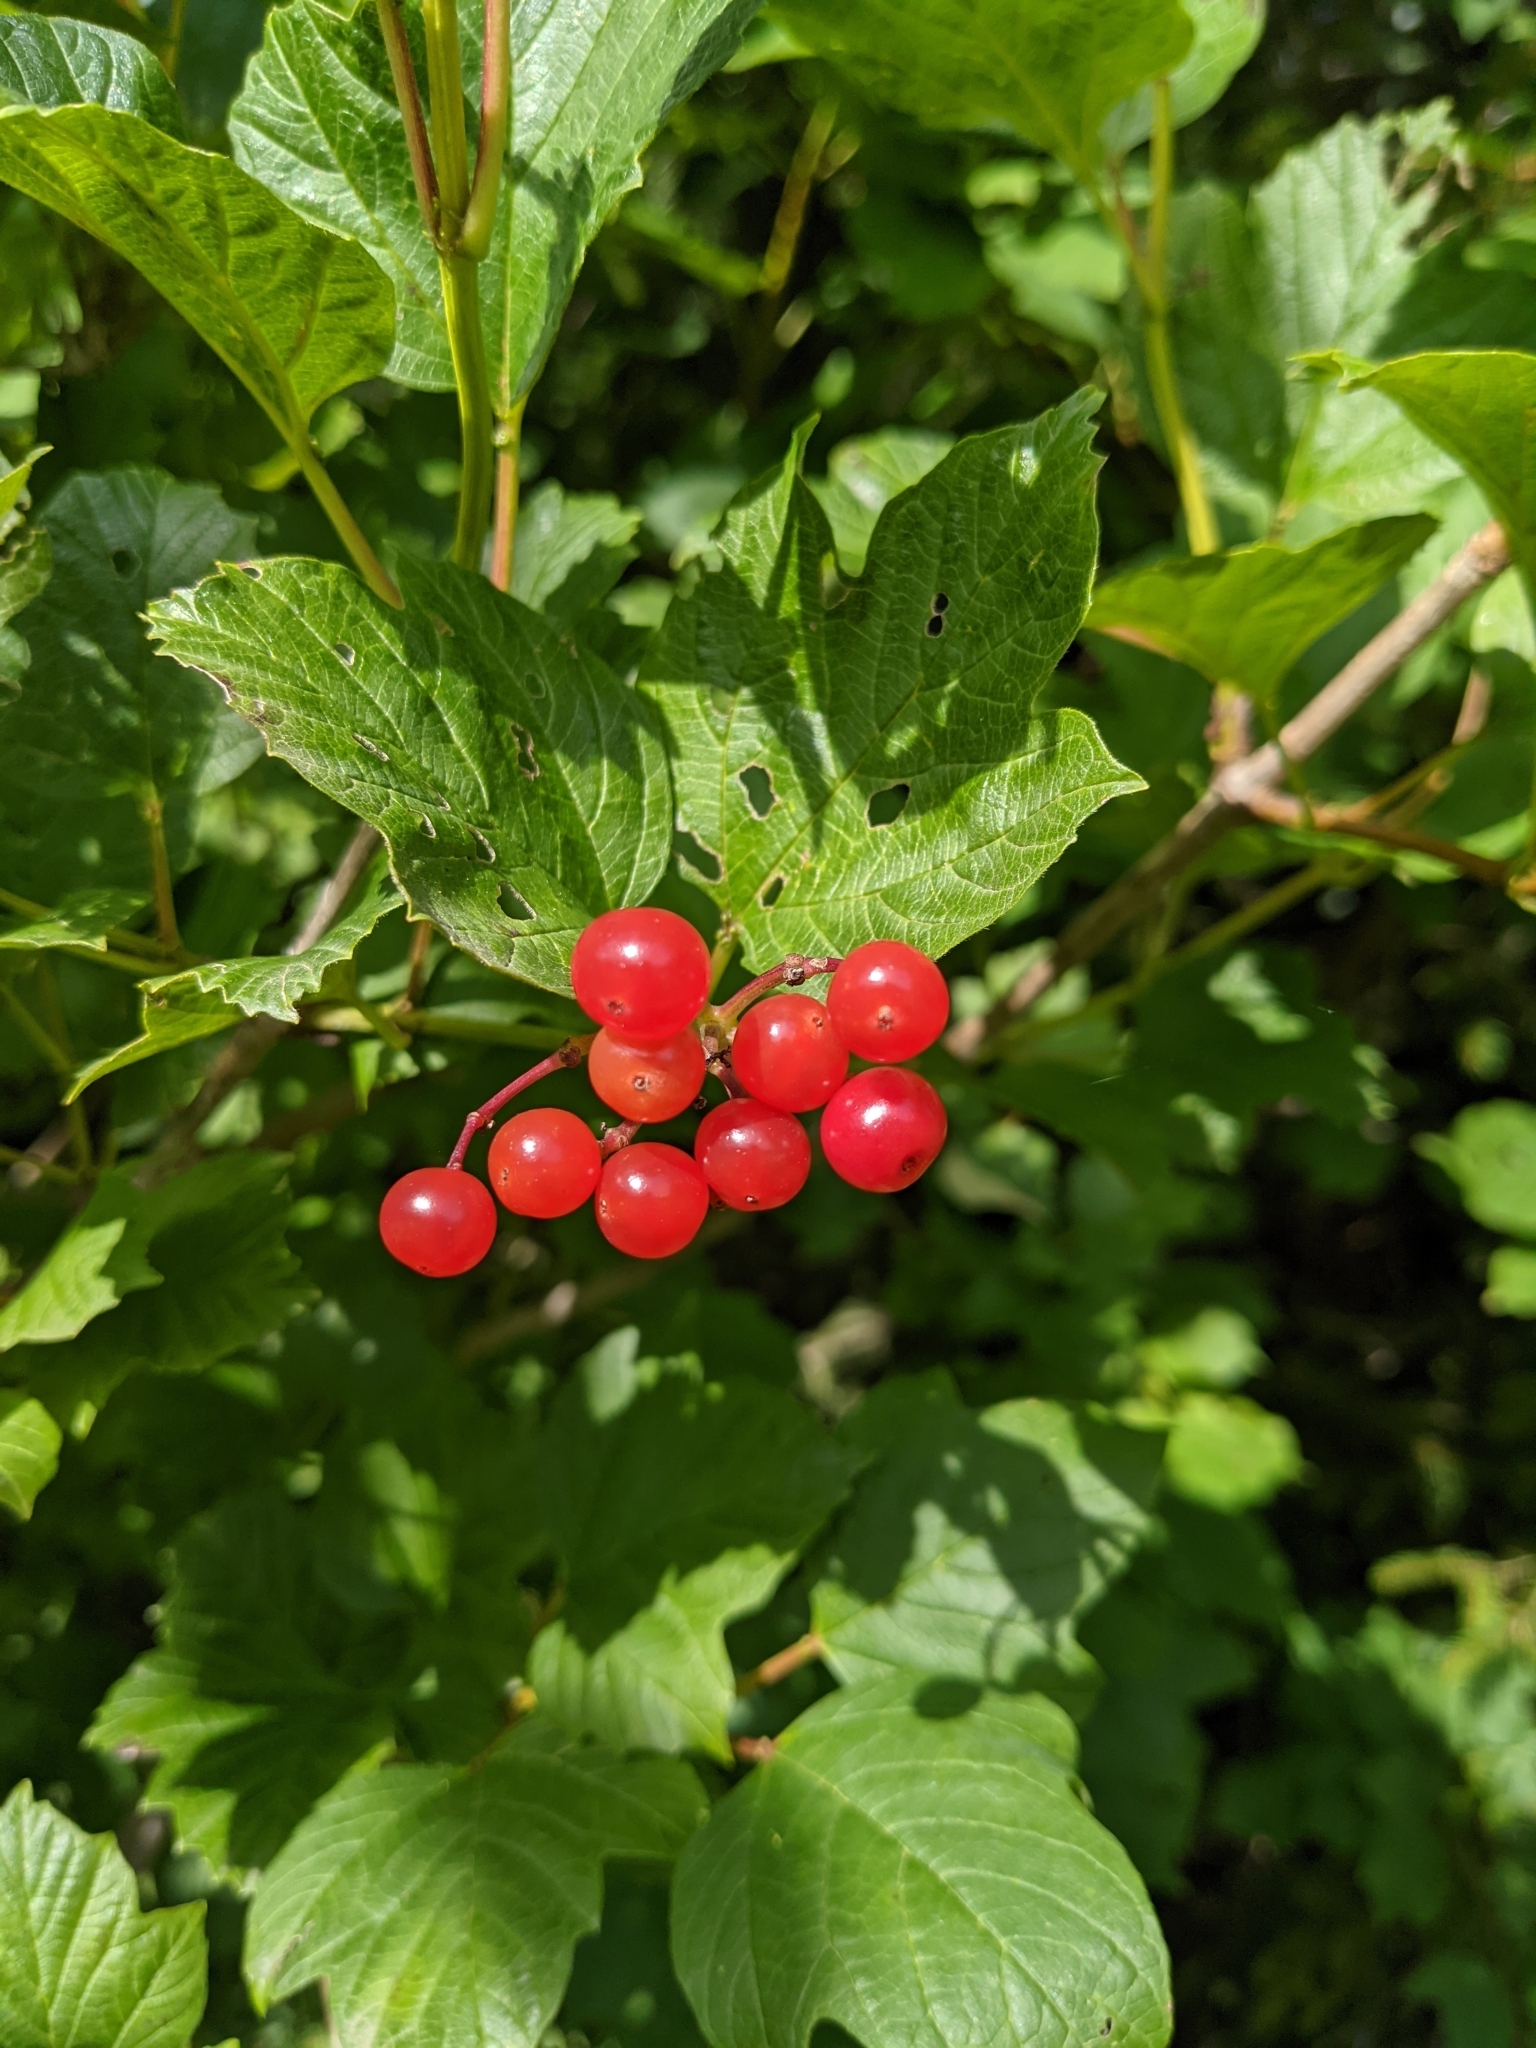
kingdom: Plantae
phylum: Tracheophyta
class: Magnoliopsida
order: Dipsacales
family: Viburnaceae
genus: Viburnum
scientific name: Viburnum opulus
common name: Guelder-rose
